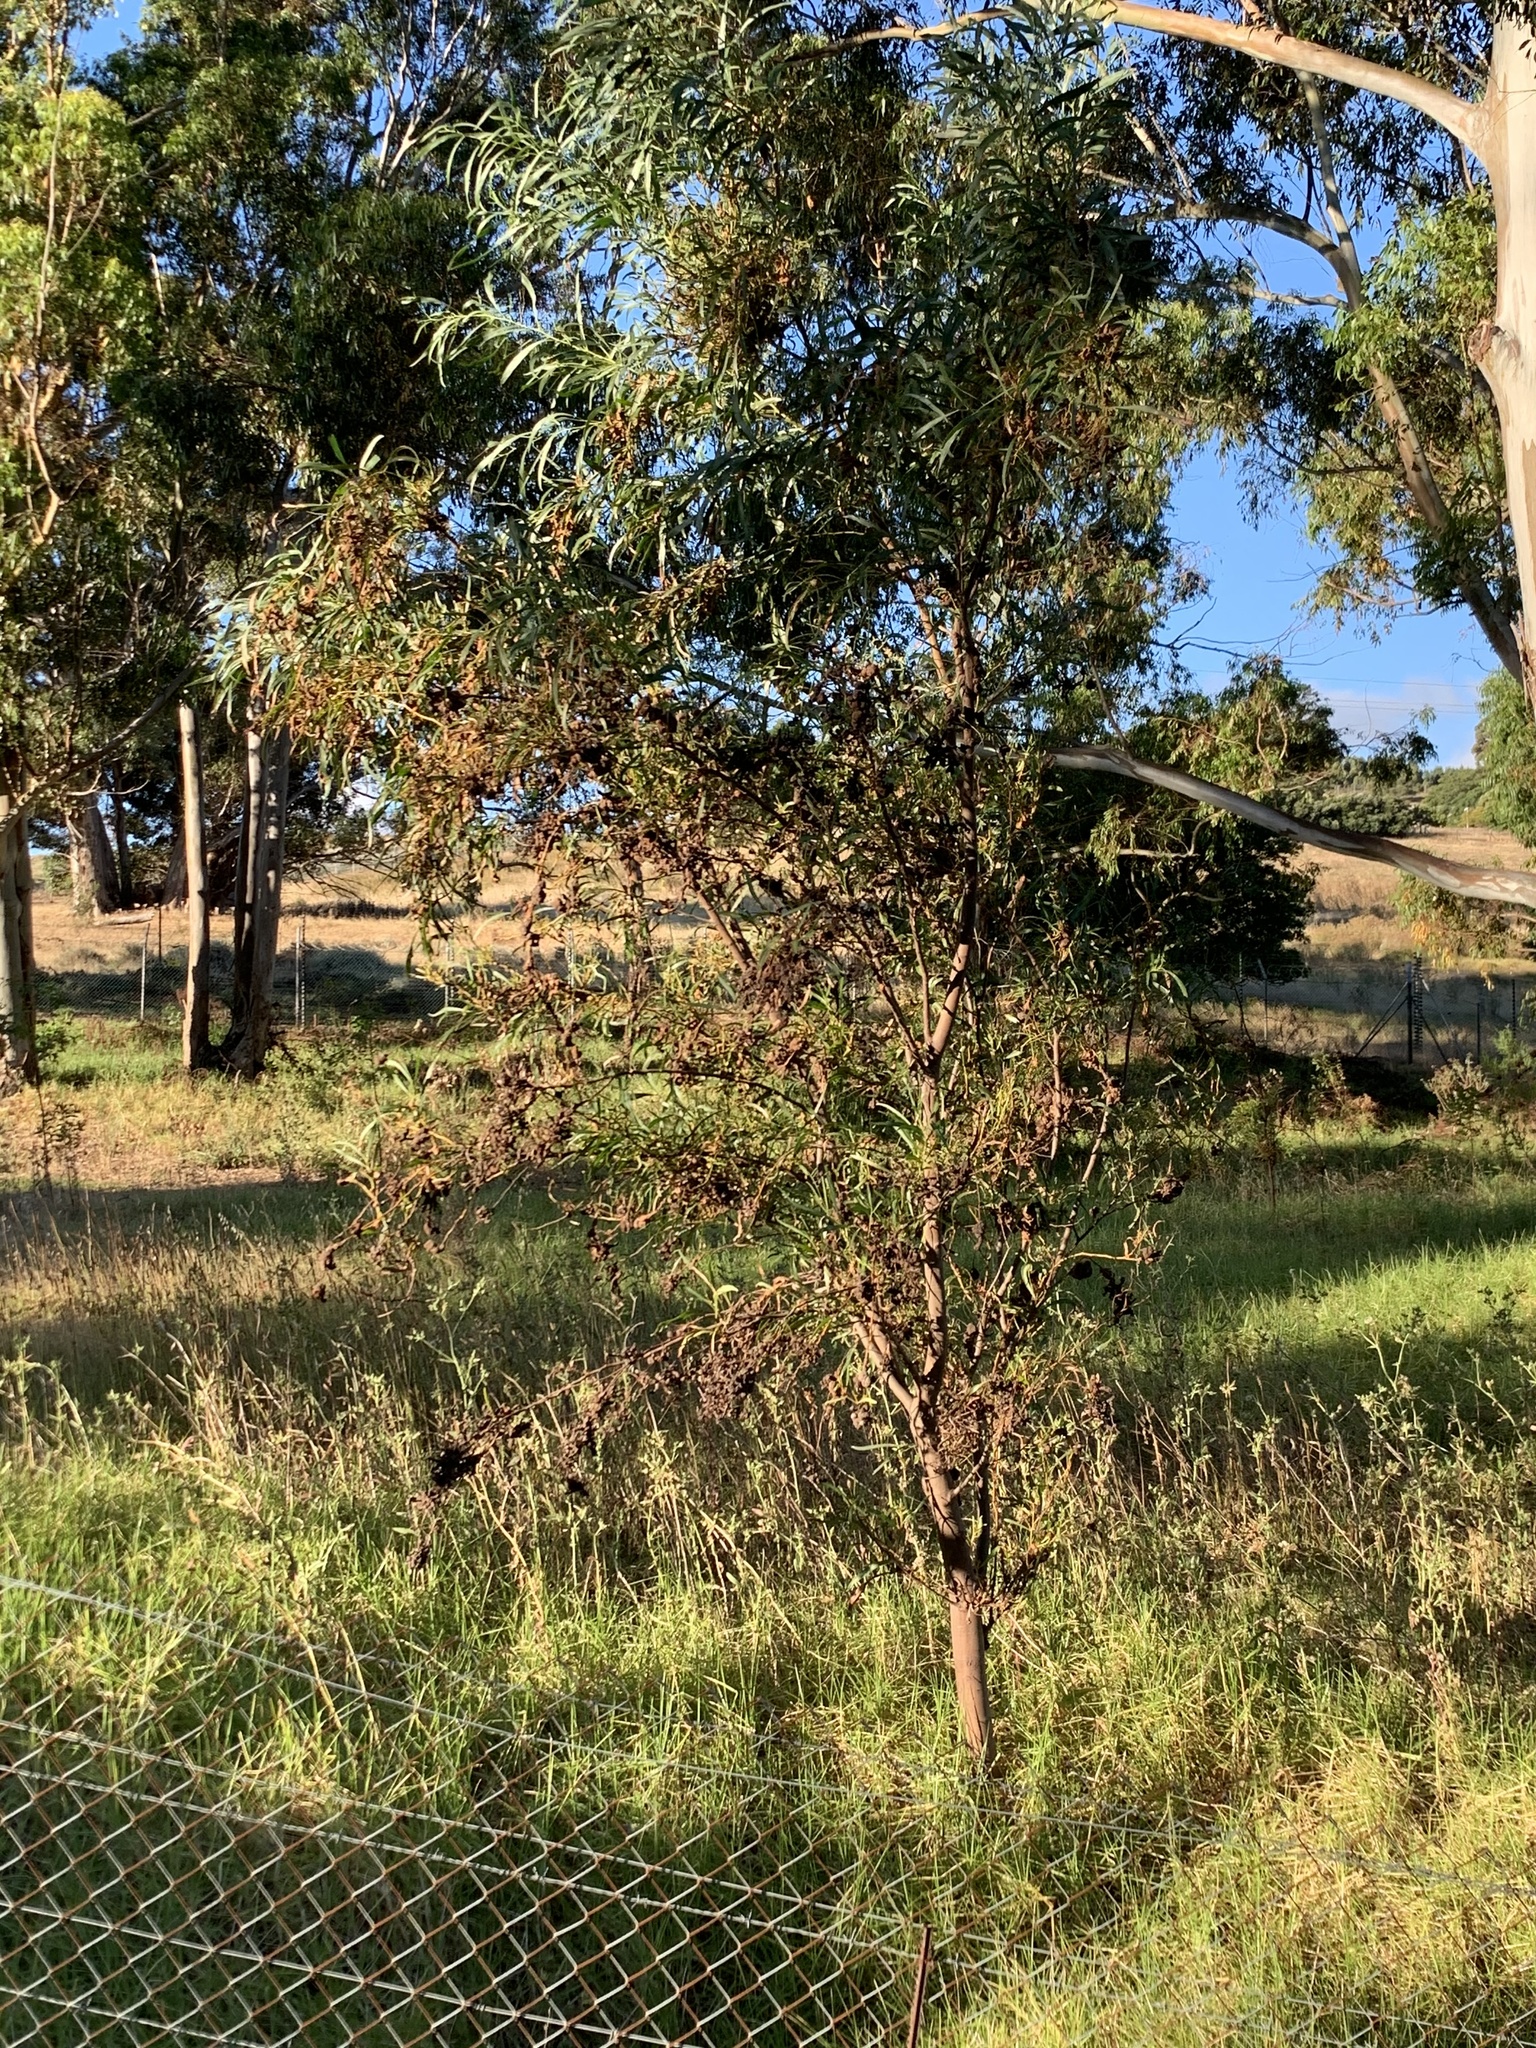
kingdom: Plantae
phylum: Tracheophyta
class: Magnoliopsida
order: Fabales
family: Fabaceae
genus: Acacia
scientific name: Acacia saligna
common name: Orange wattle
